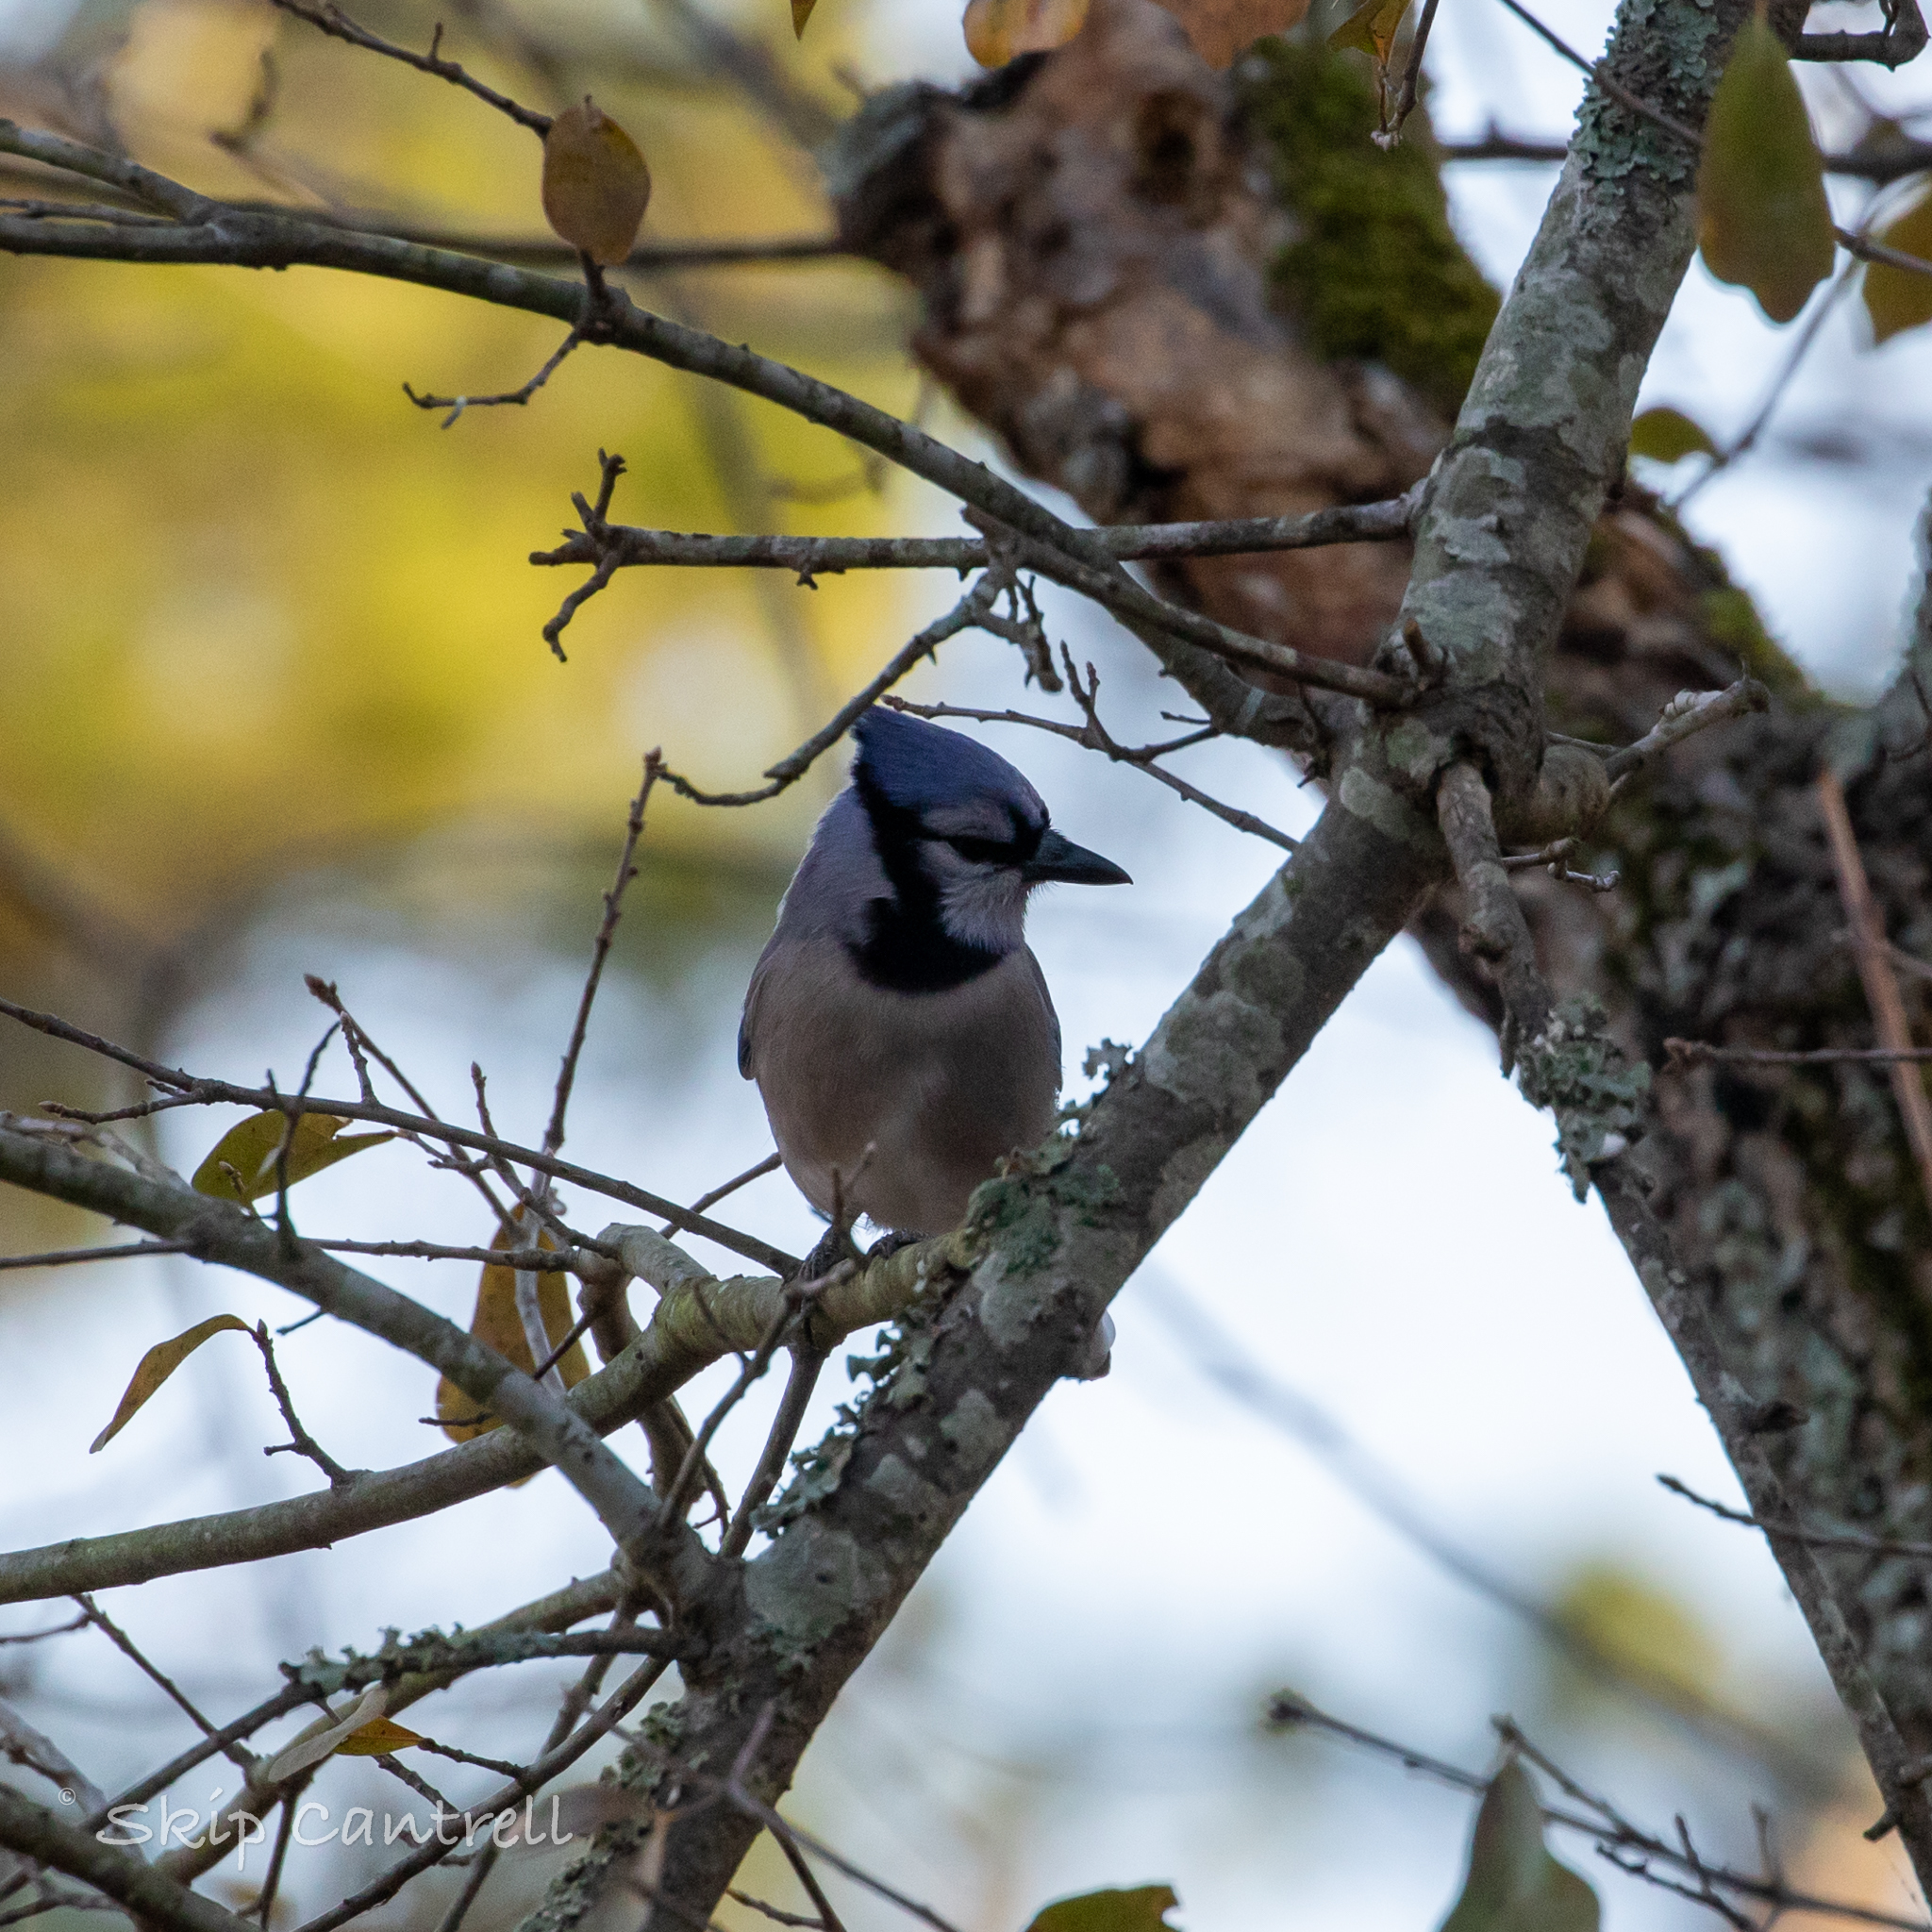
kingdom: Animalia
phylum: Chordata
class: Aves
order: Passeriformes
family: Corvidae
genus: Cyanocitta
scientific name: Cyanocitta cristata
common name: Blue jay
